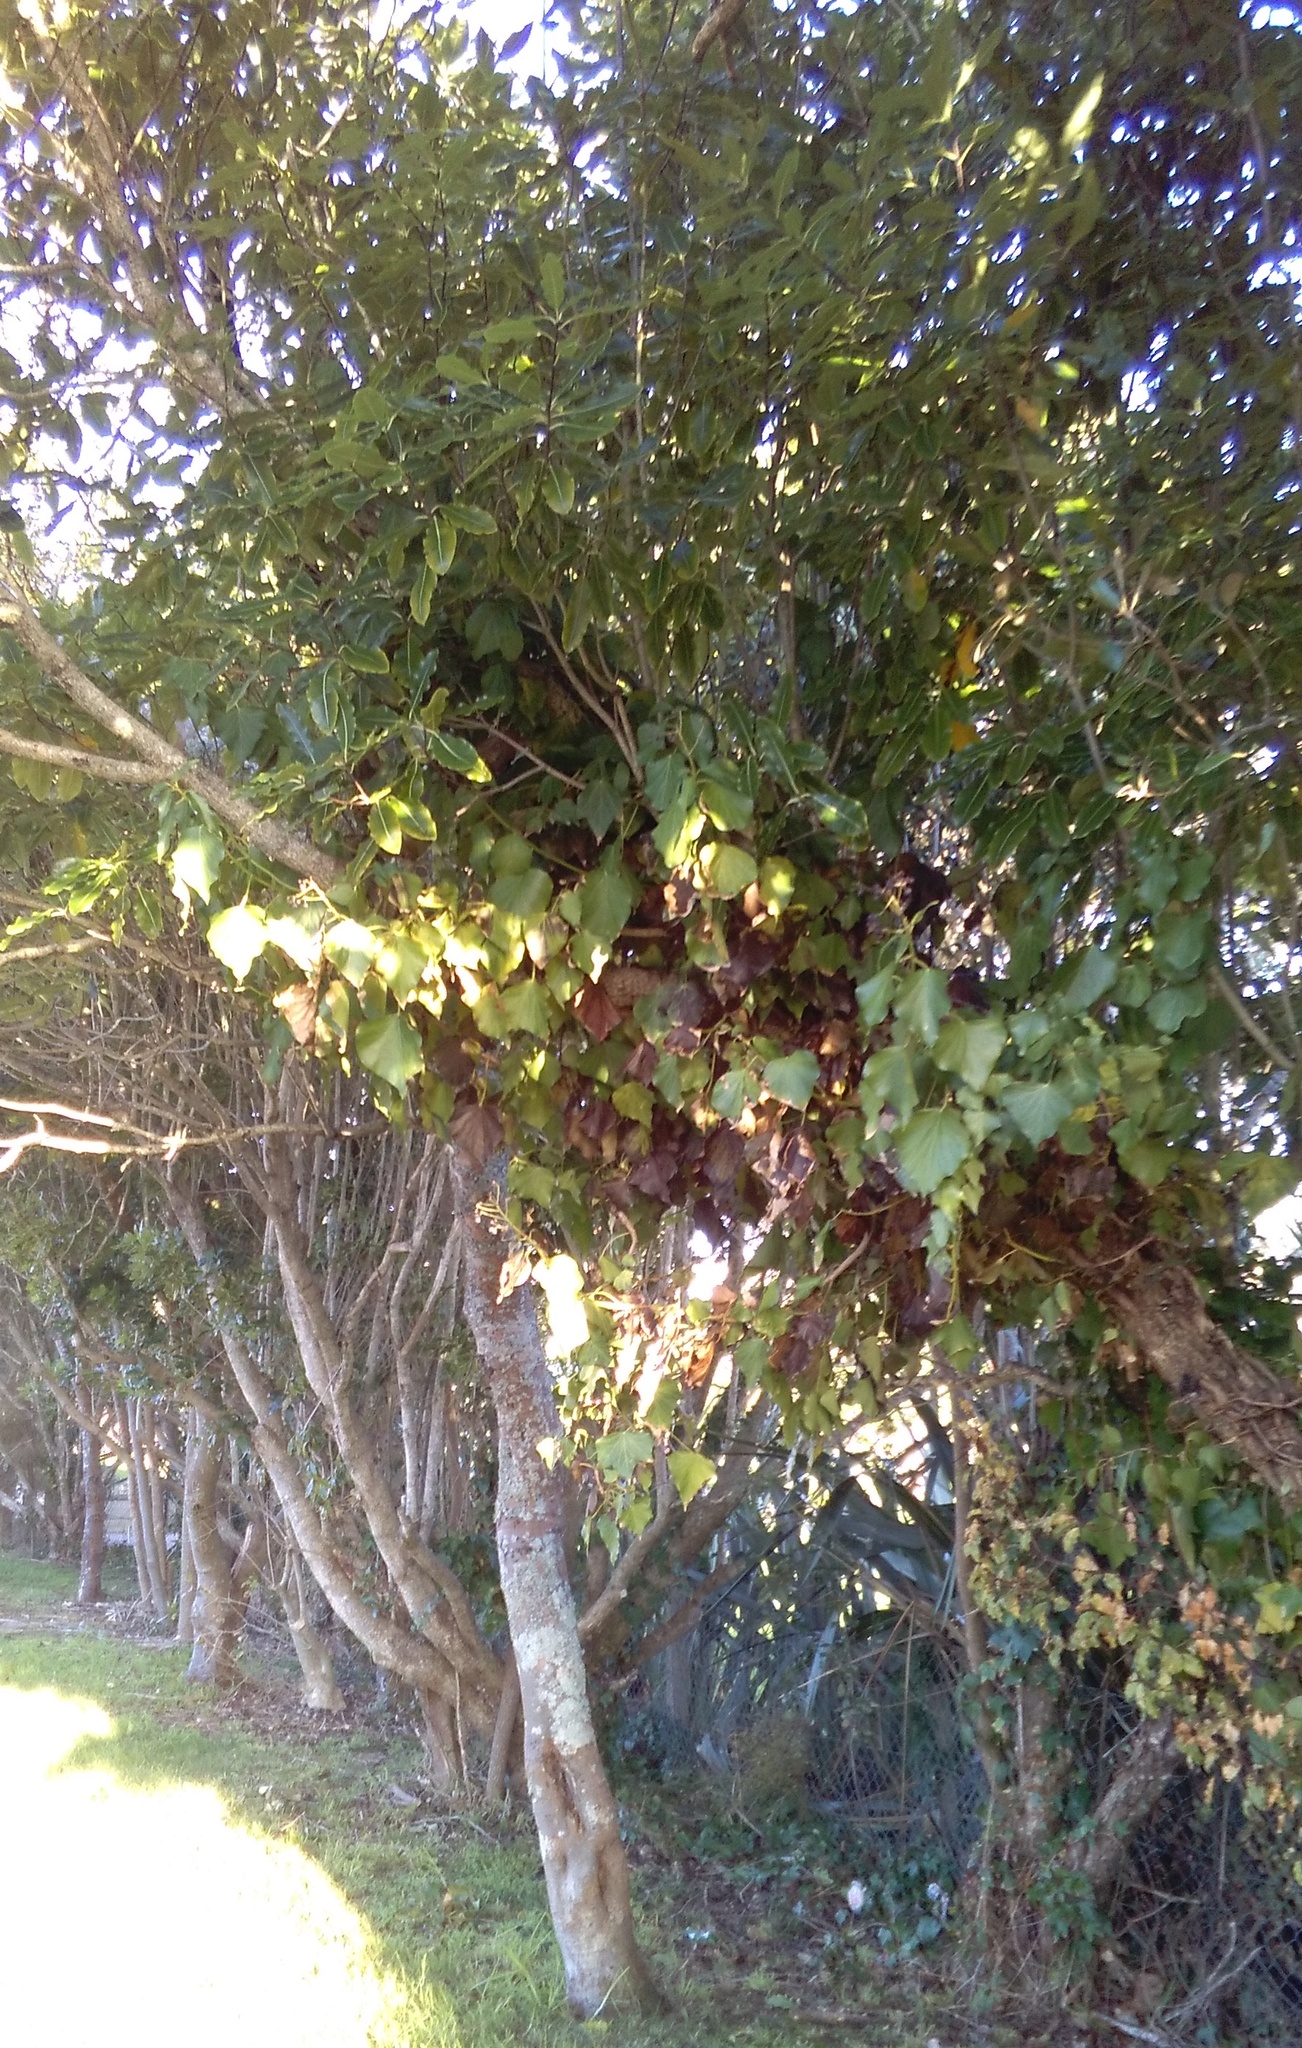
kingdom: Plantae
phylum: Tracheophyta
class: Magnoliopsida
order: Apiales
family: Araliaceae
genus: Hedera
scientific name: Hedera helix
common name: Ivy
